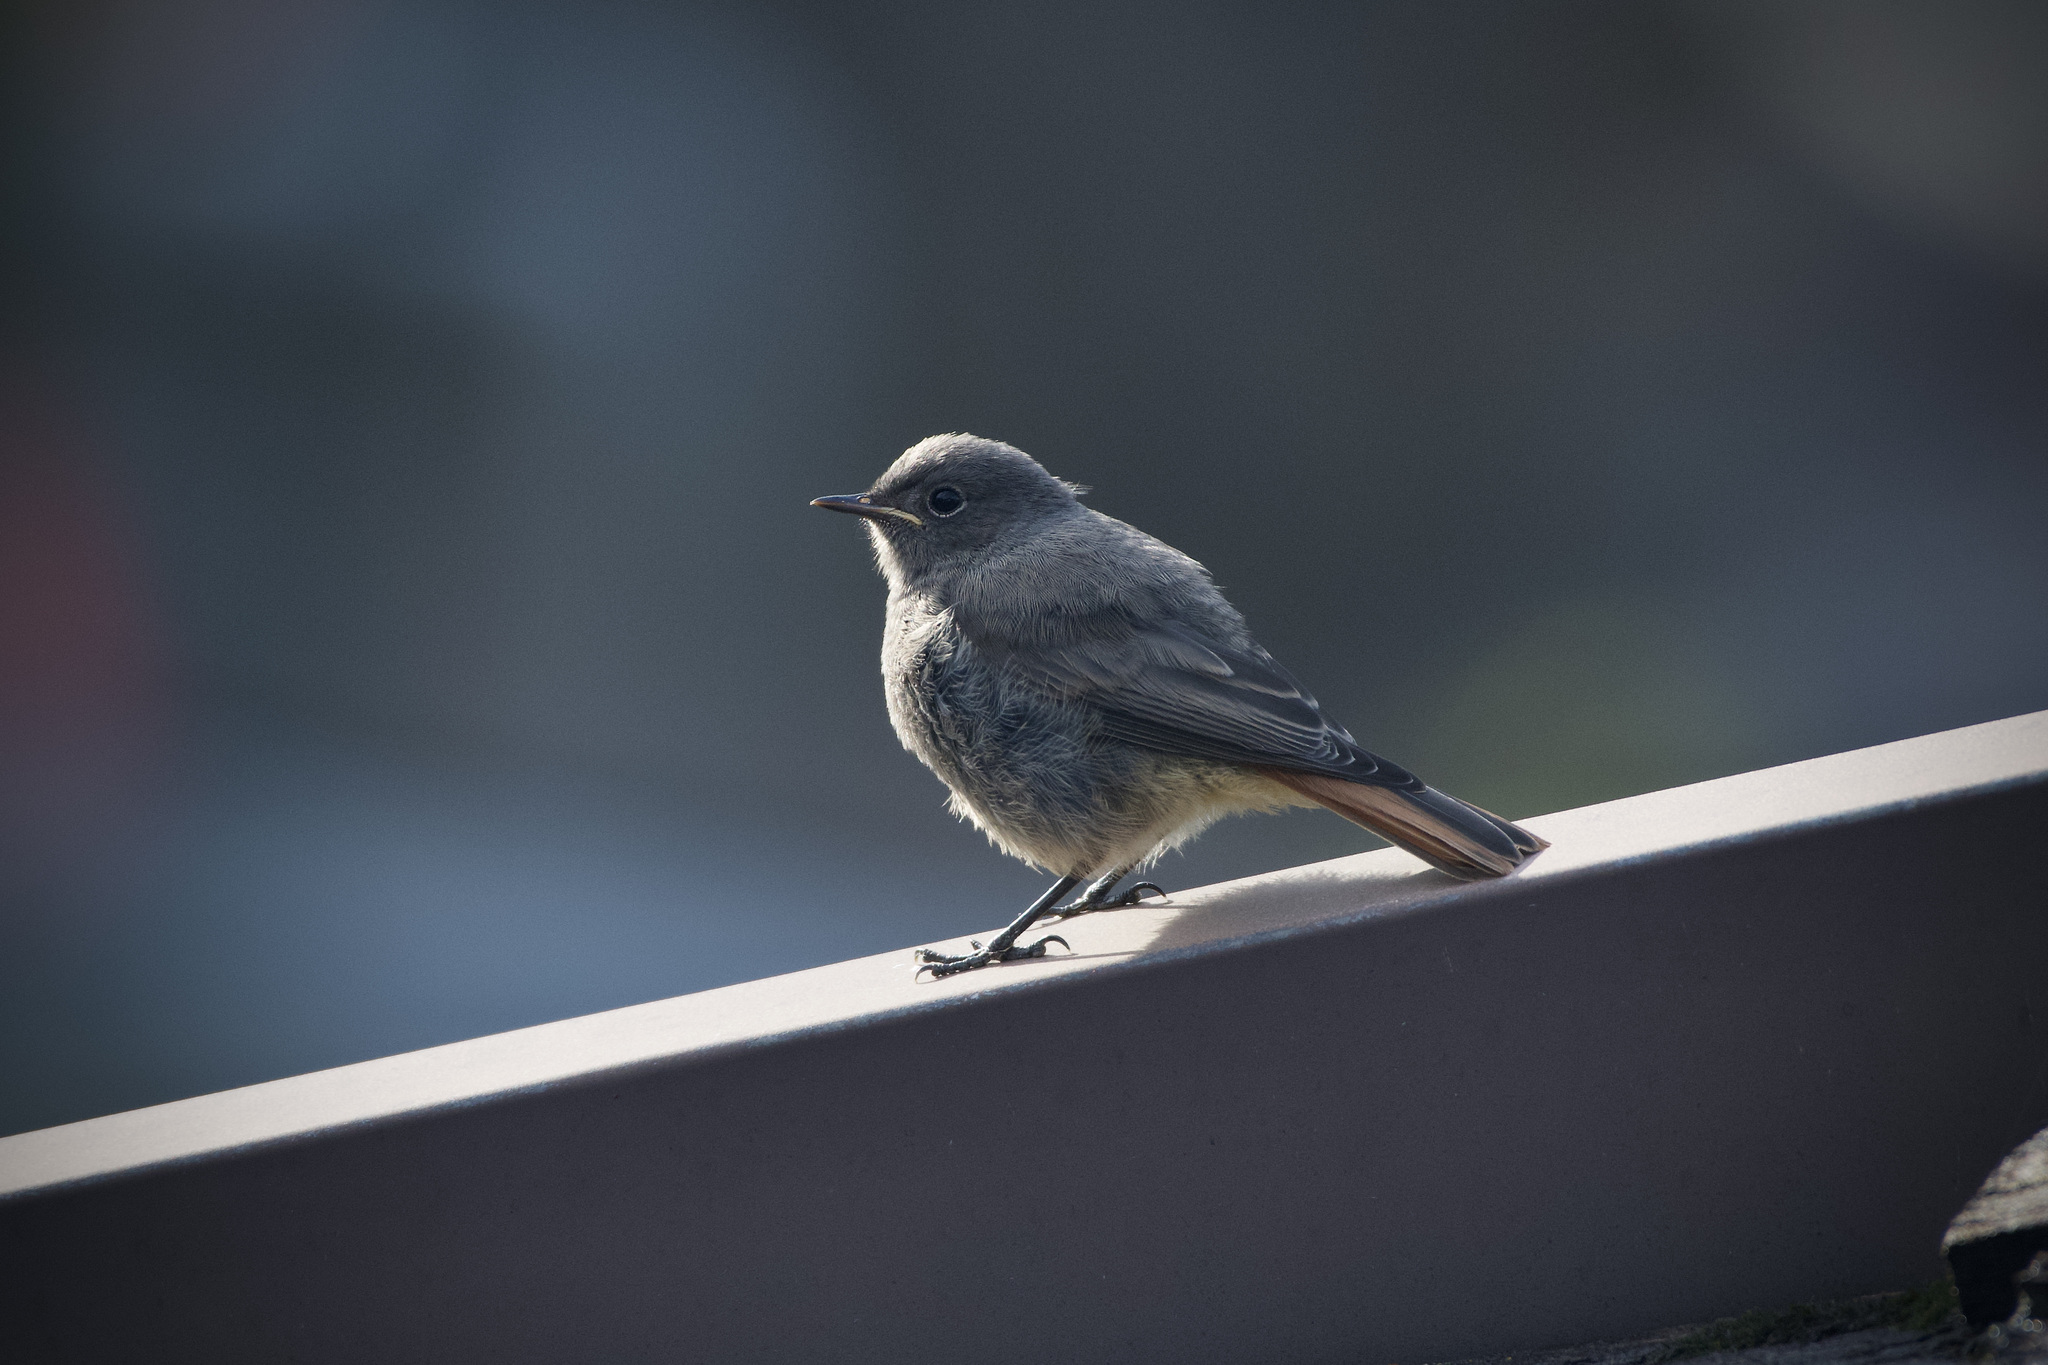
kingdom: Animalia
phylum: Chordata
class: Aves
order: Passeriformes
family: Muscicapidae
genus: Phoenicurus
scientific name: Phoenicurus ochruros
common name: Black redstart
